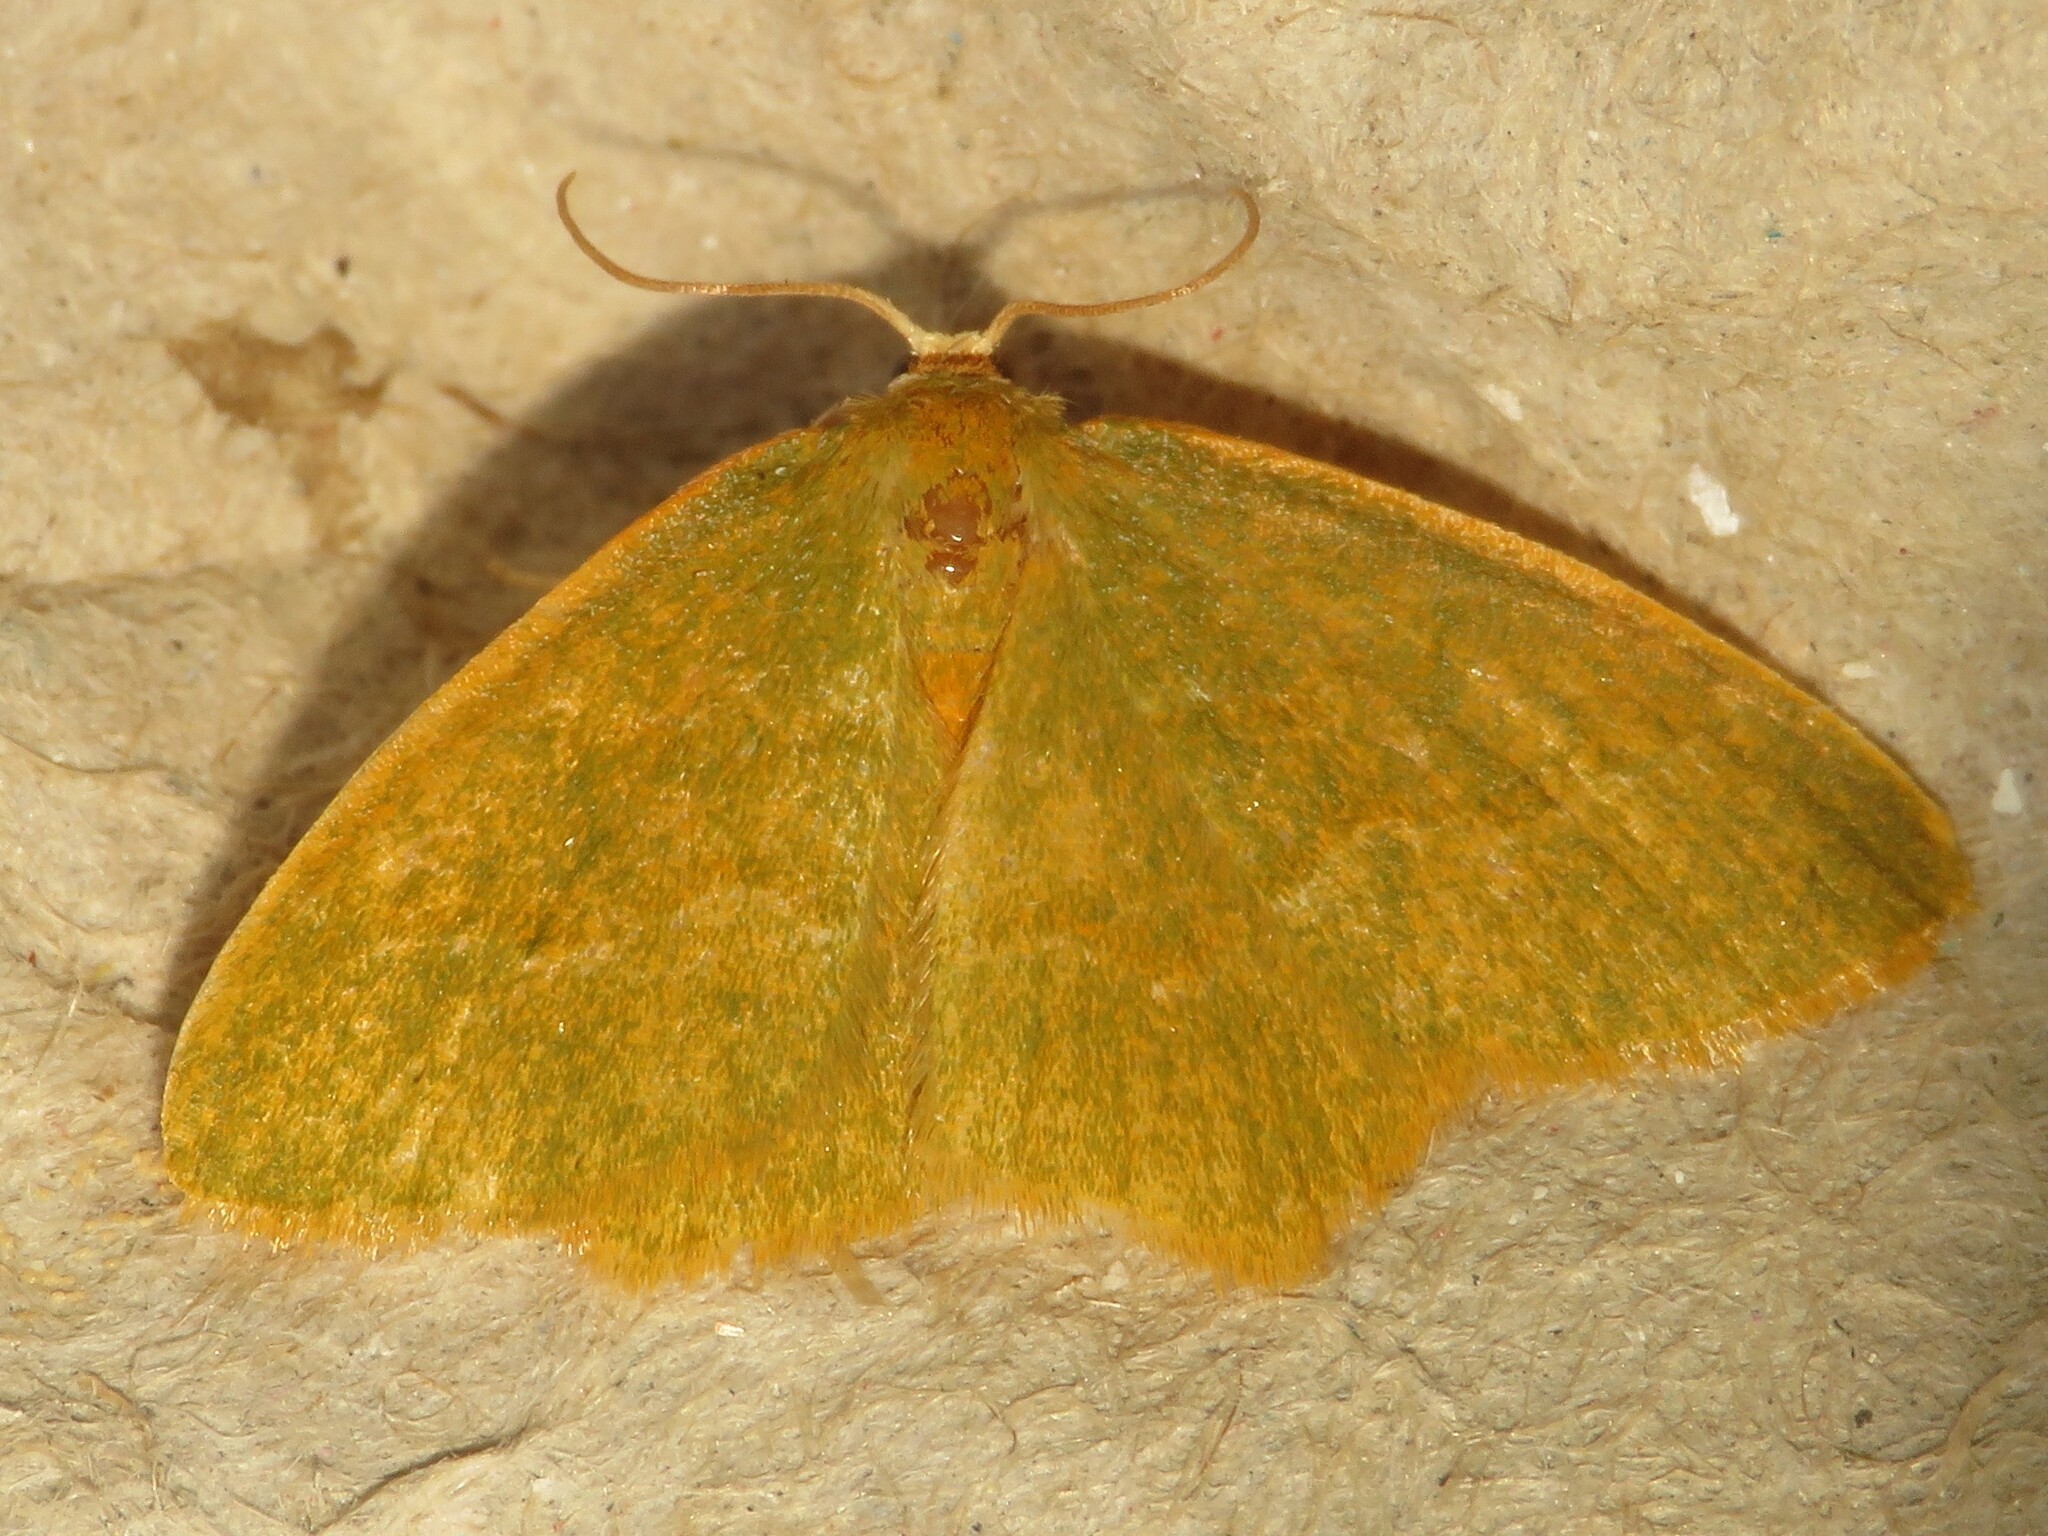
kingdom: Animalia
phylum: Arthropoda
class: Insecta
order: Lepidoptera
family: Geometridae
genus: Thalera
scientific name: Thalera pistasciaria
